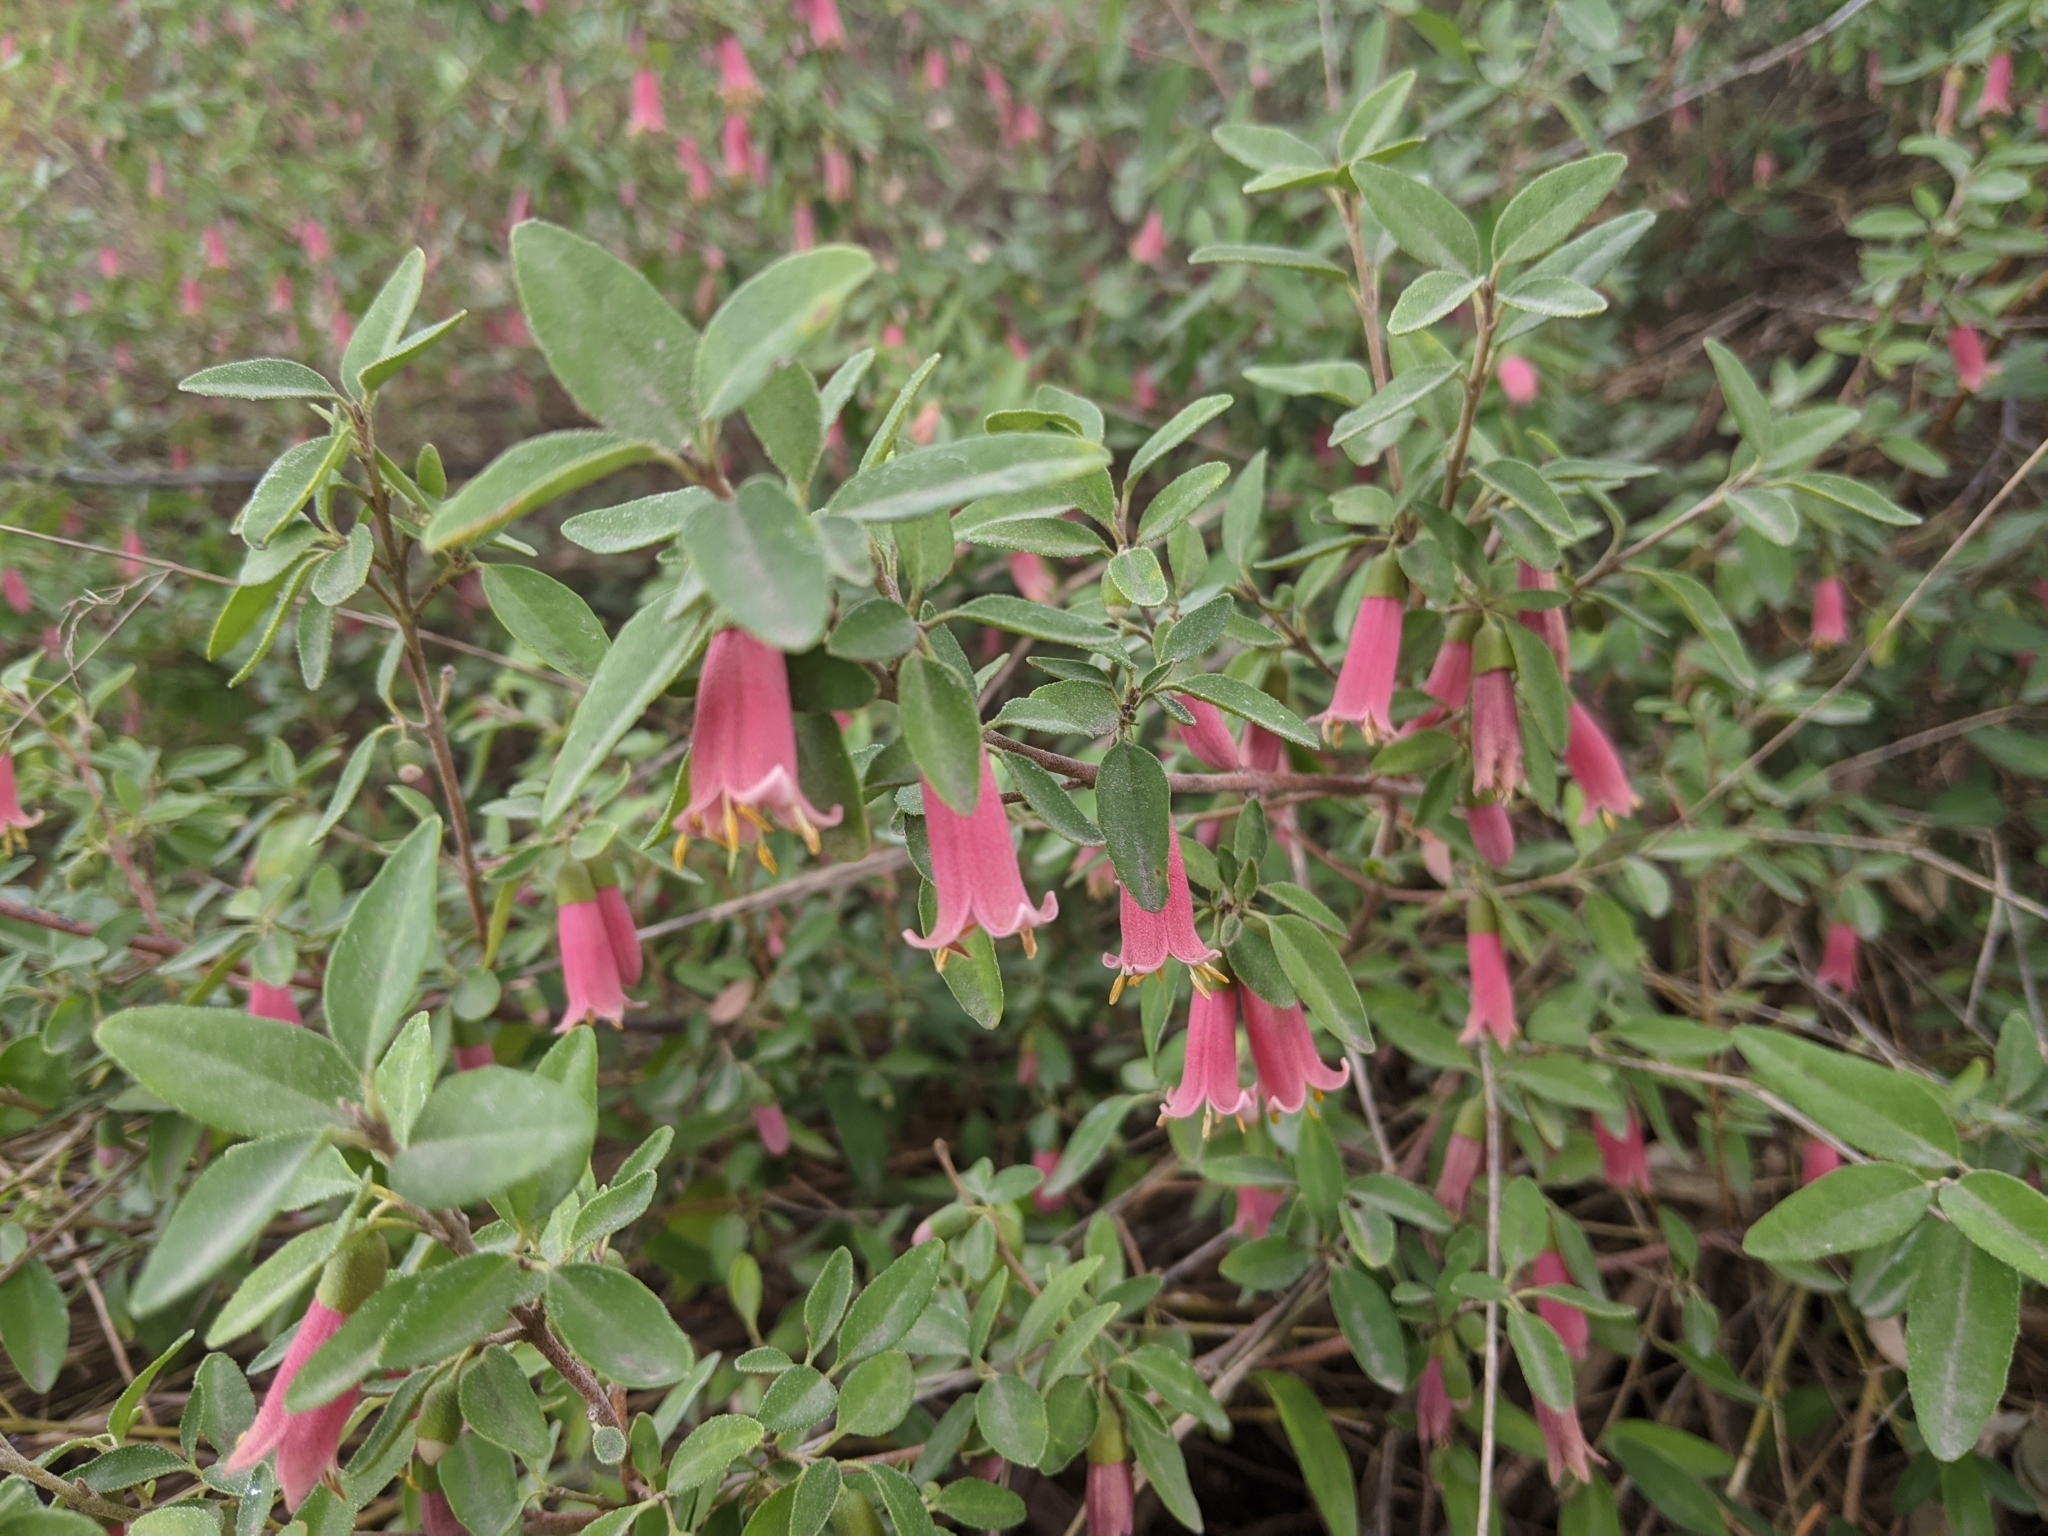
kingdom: Plantae
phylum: Tracheophyta
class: Magnoliopsida
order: Dipsacales
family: Caprifoliaceae
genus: Symphoricarpos
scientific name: Symphoricarpos rotundifolius
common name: Round-leaved snowberry
